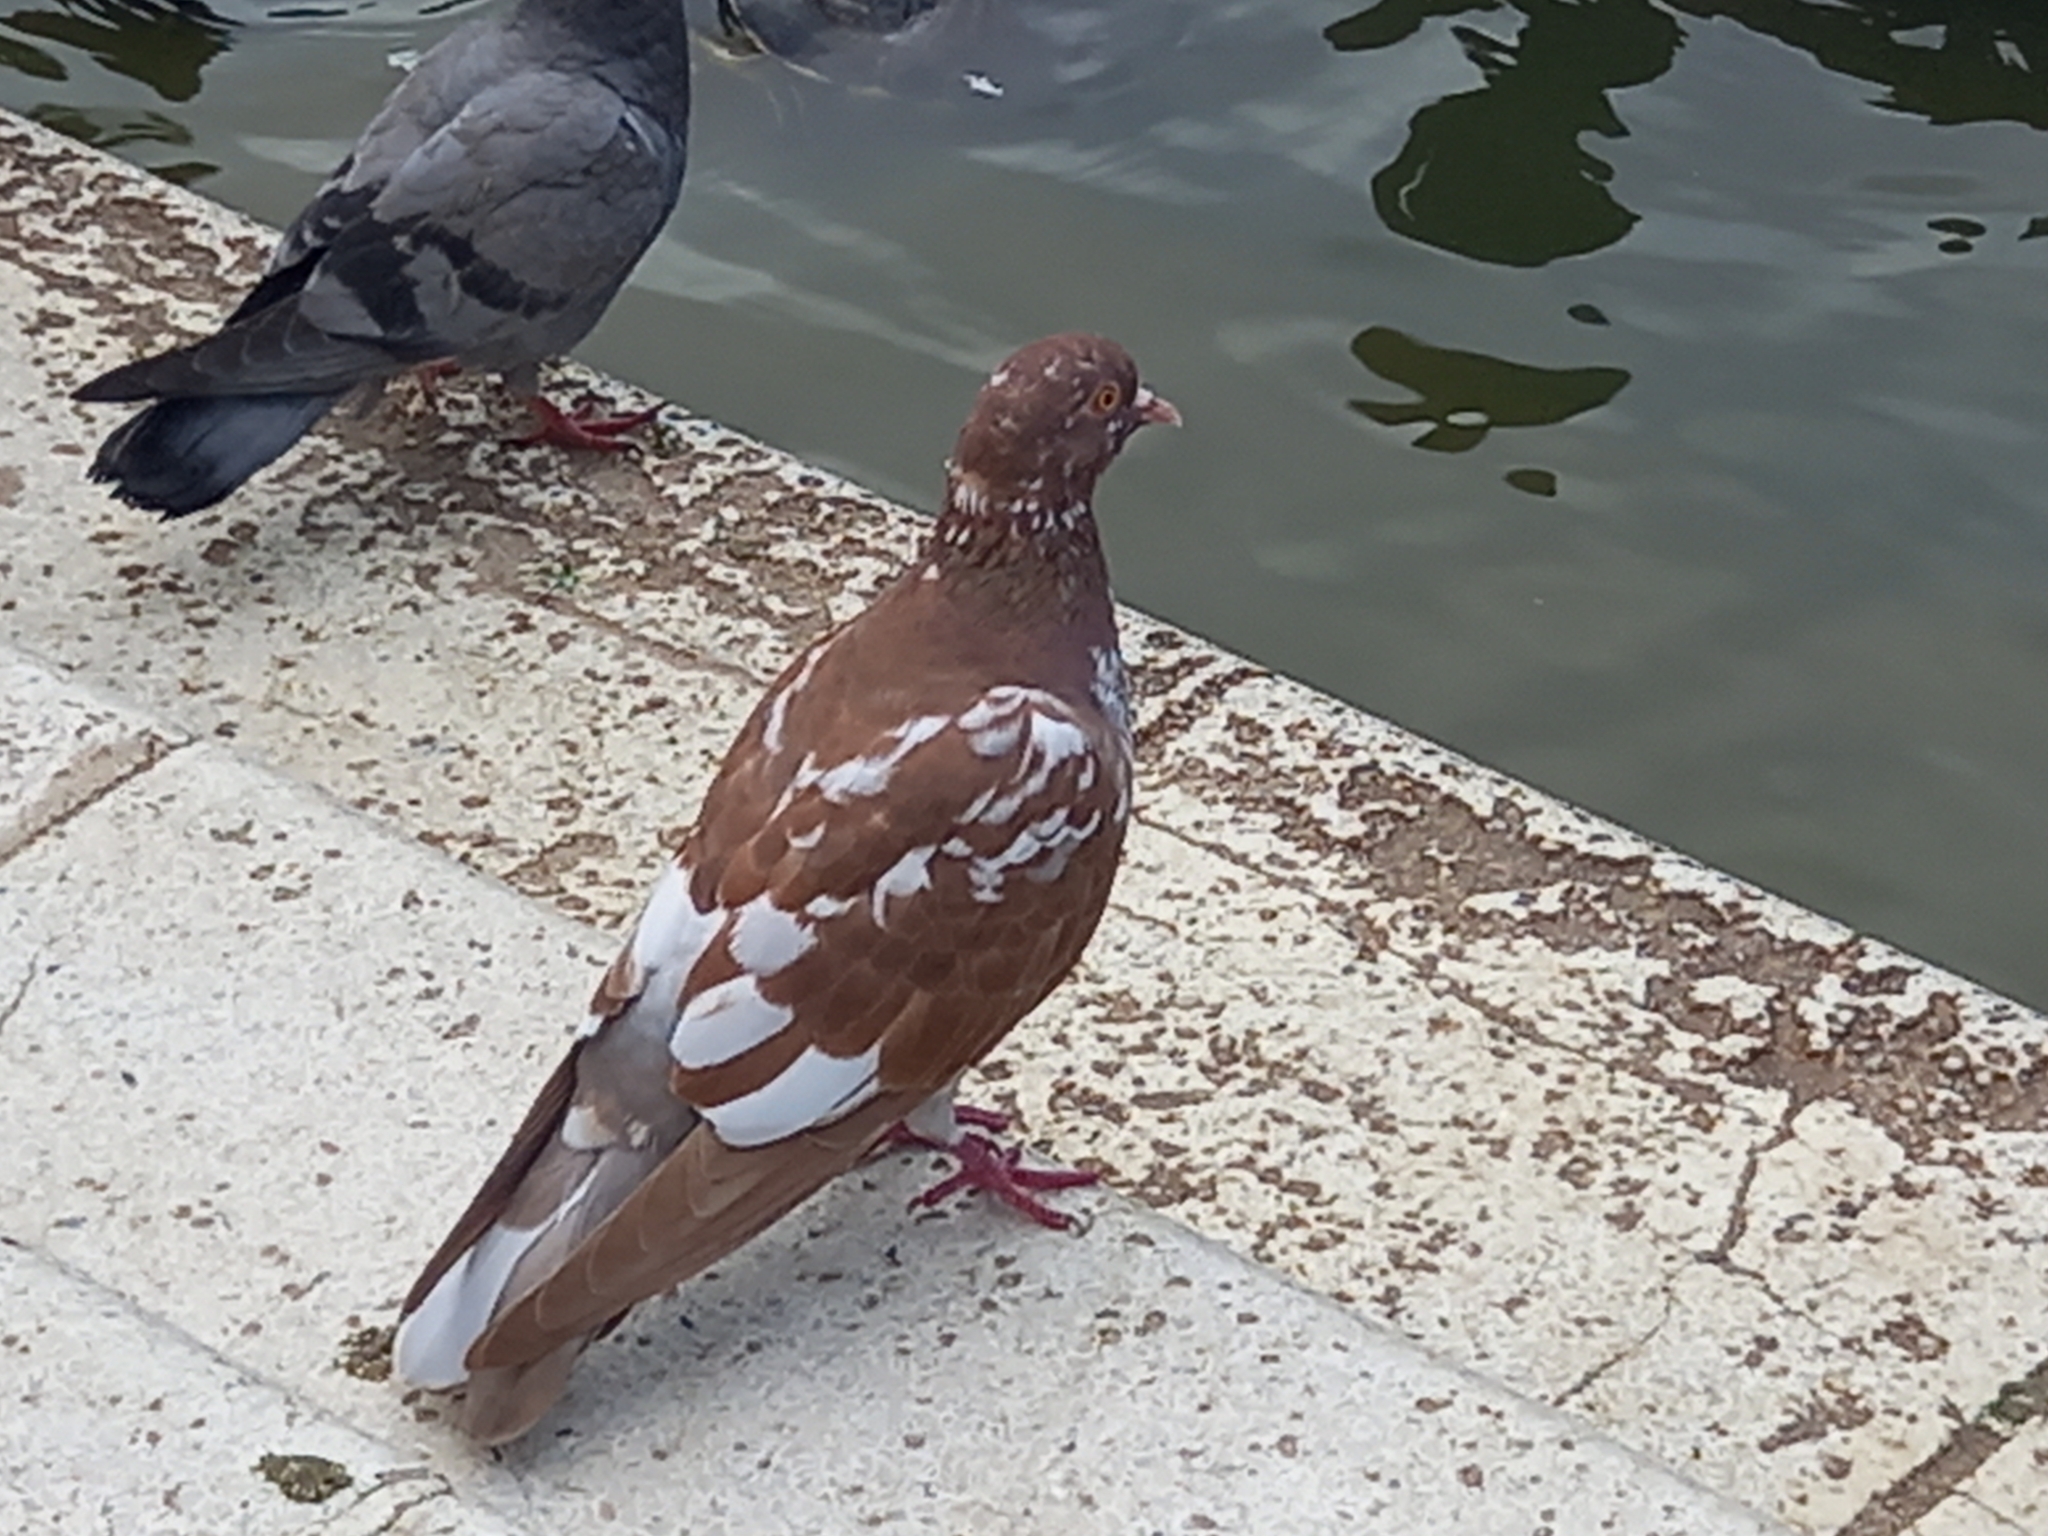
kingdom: Animalia
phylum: Chordata
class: Aves
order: Columbiformes
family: Columbidae
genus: Columba
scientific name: Columba livia
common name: Rock pigeon
